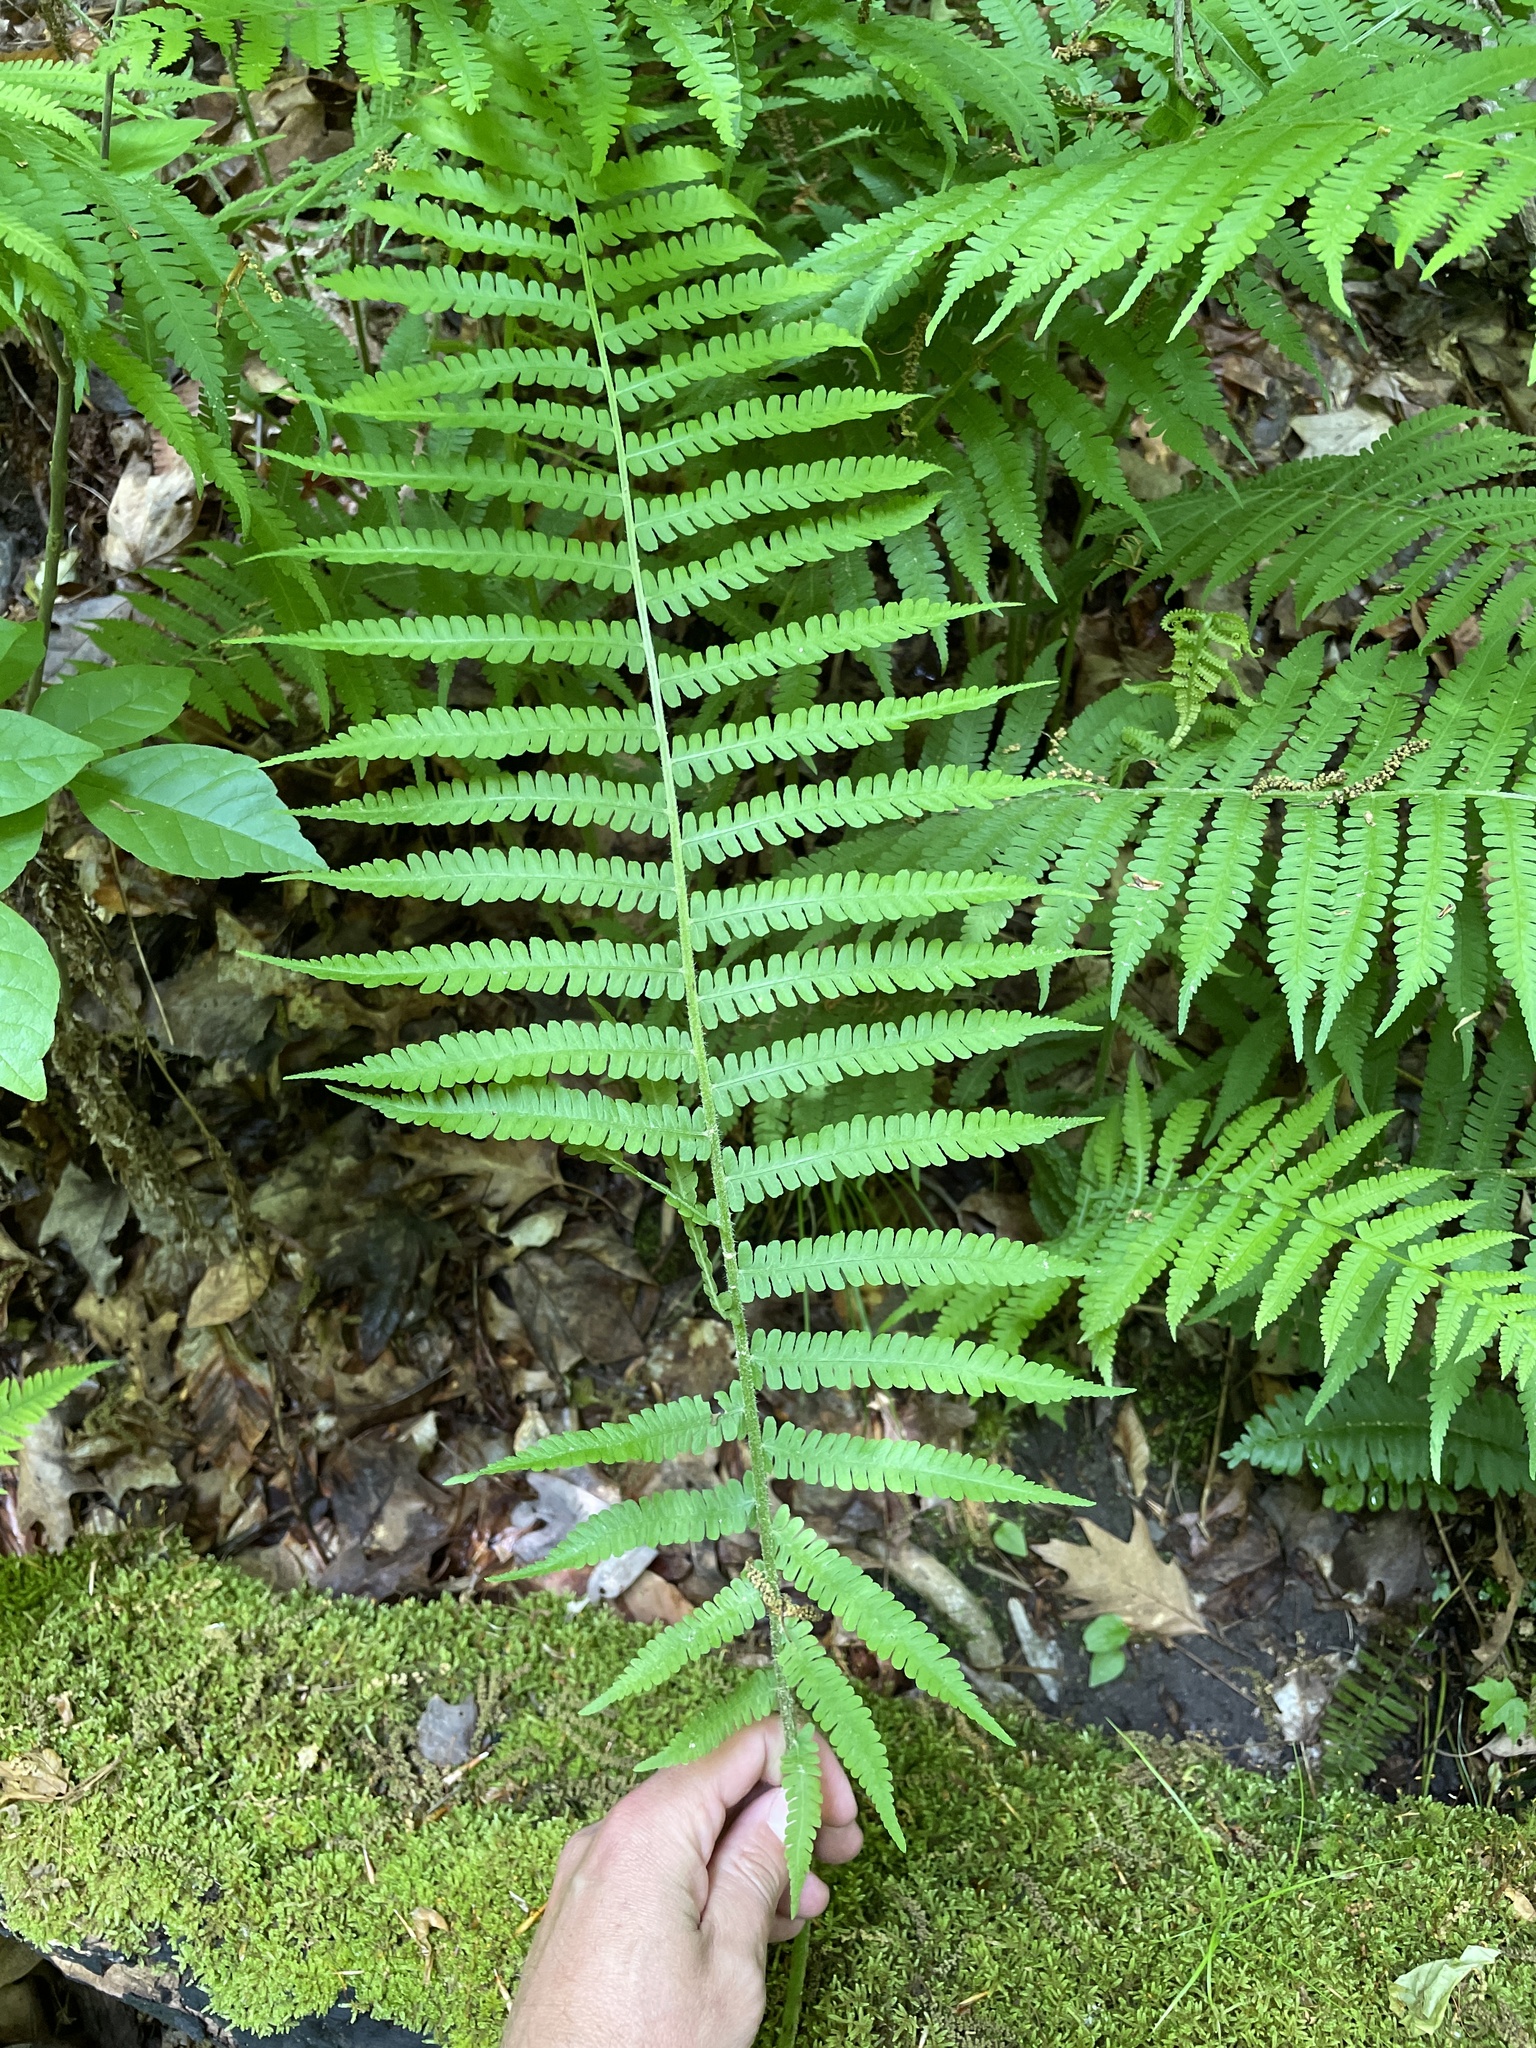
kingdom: Plantae
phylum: Tracheophyta
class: Polypodiopsida
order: Polypodiales
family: Athyriaceae
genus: Deparia
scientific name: Deparia acrostichoides
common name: Silver false spleenwort
